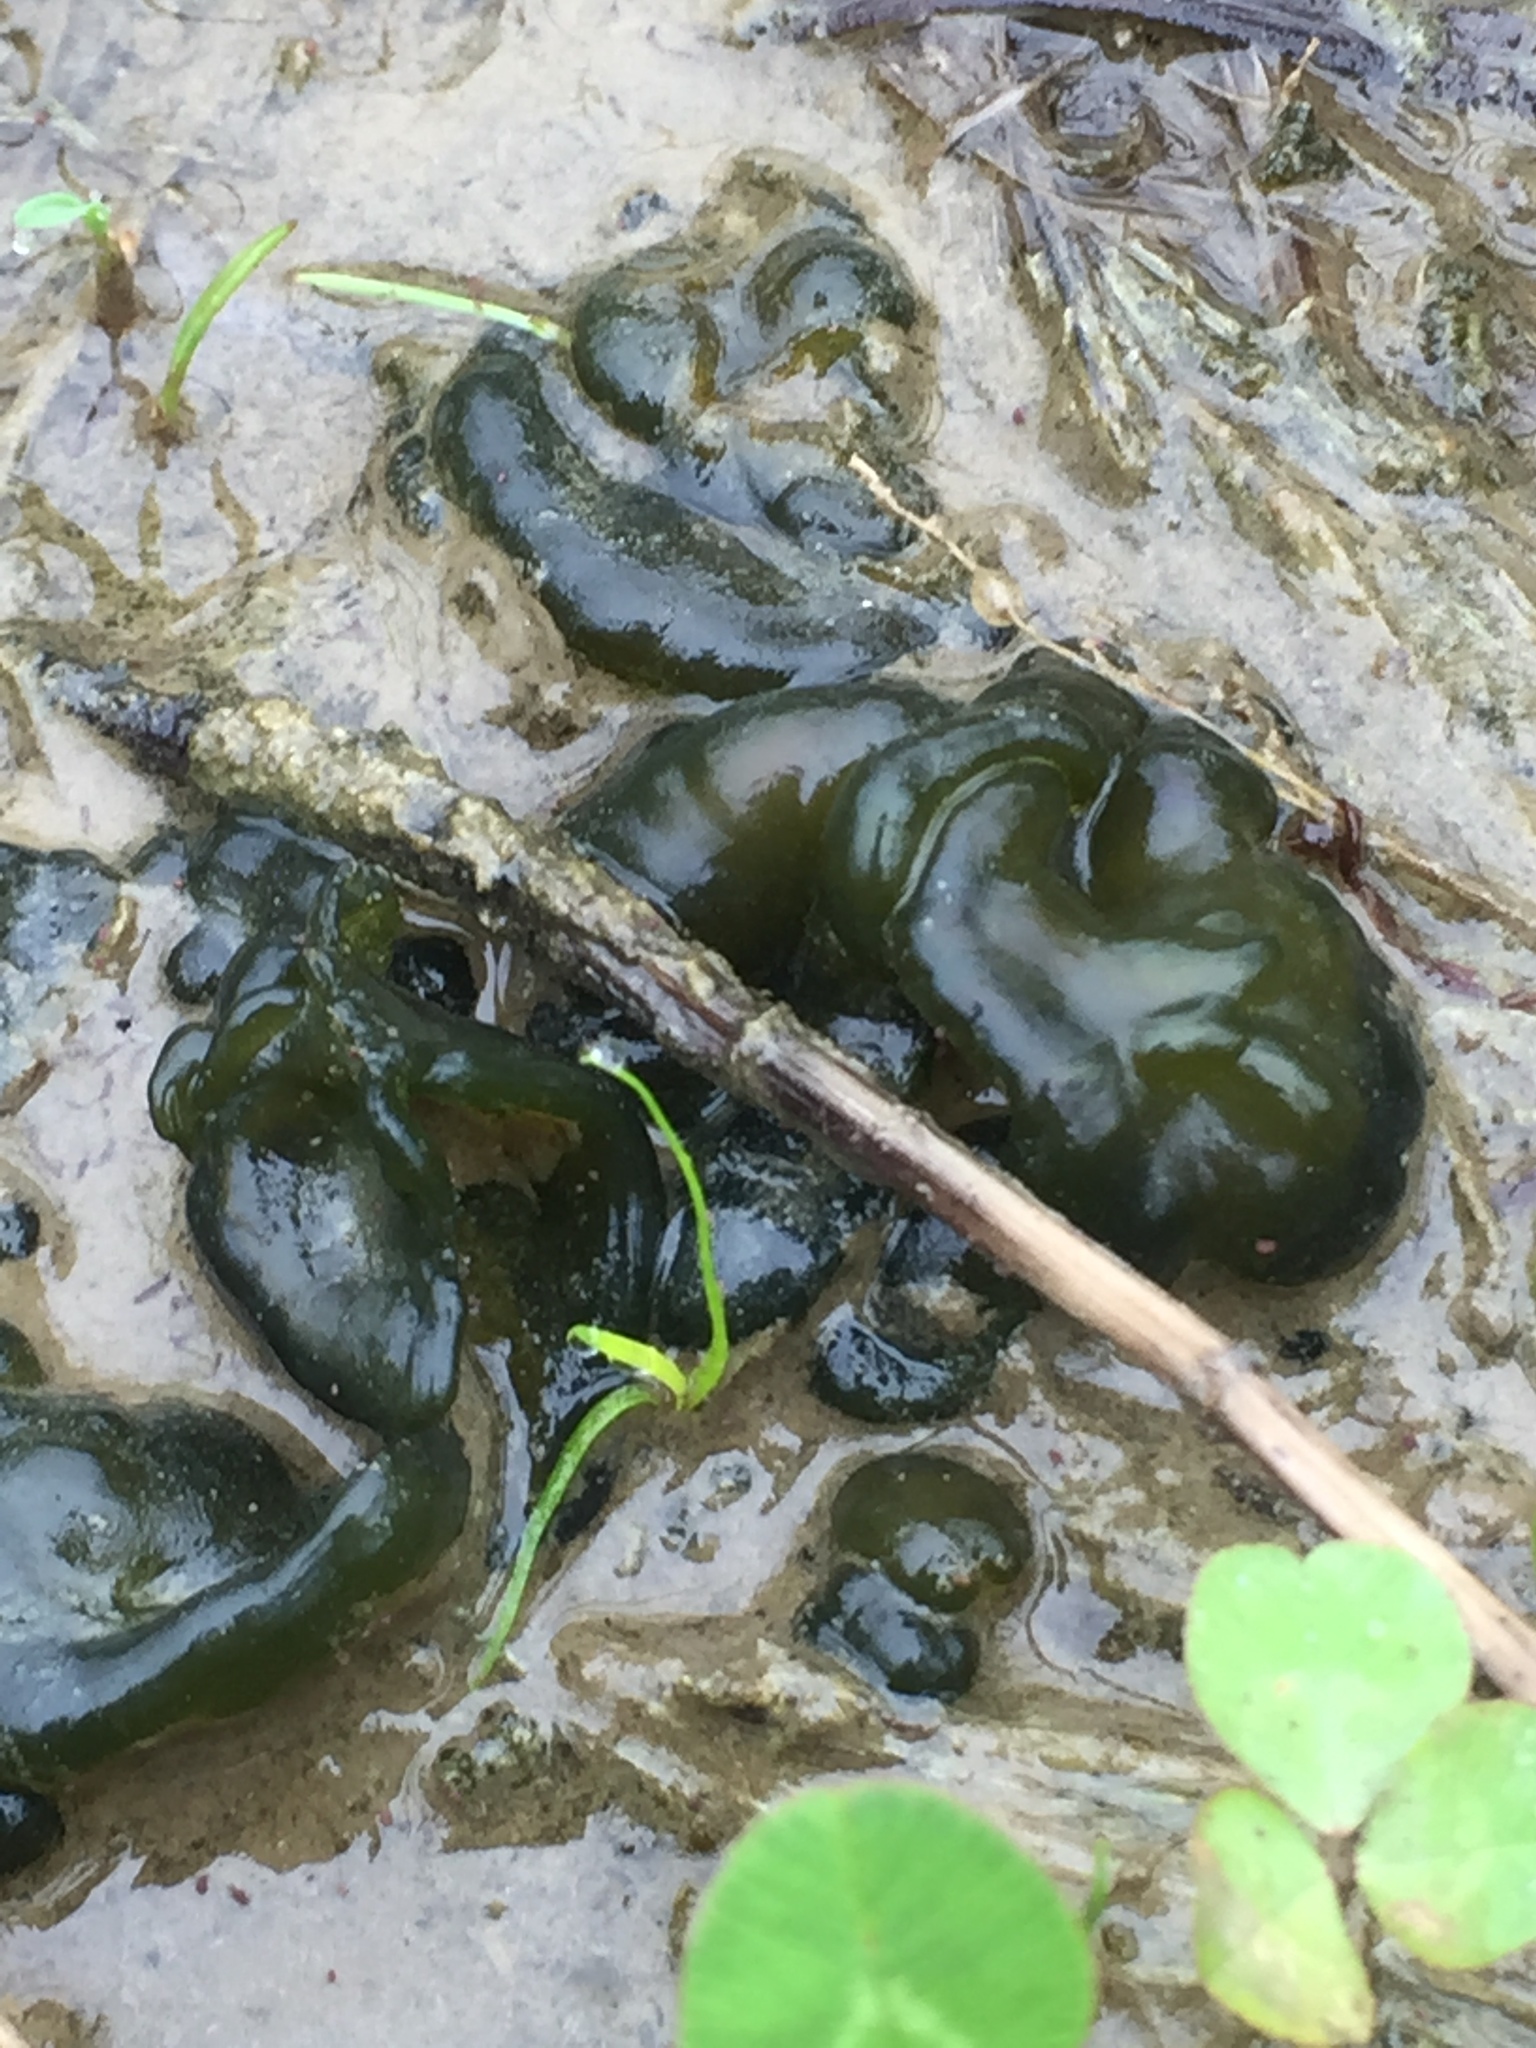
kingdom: Bacteria
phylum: Cyanobacteria
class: Cyanobacteriia
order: Cyanobacteriales
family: Nostocaceae
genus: Nostoc
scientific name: Nostoc commune
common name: Star jelly
